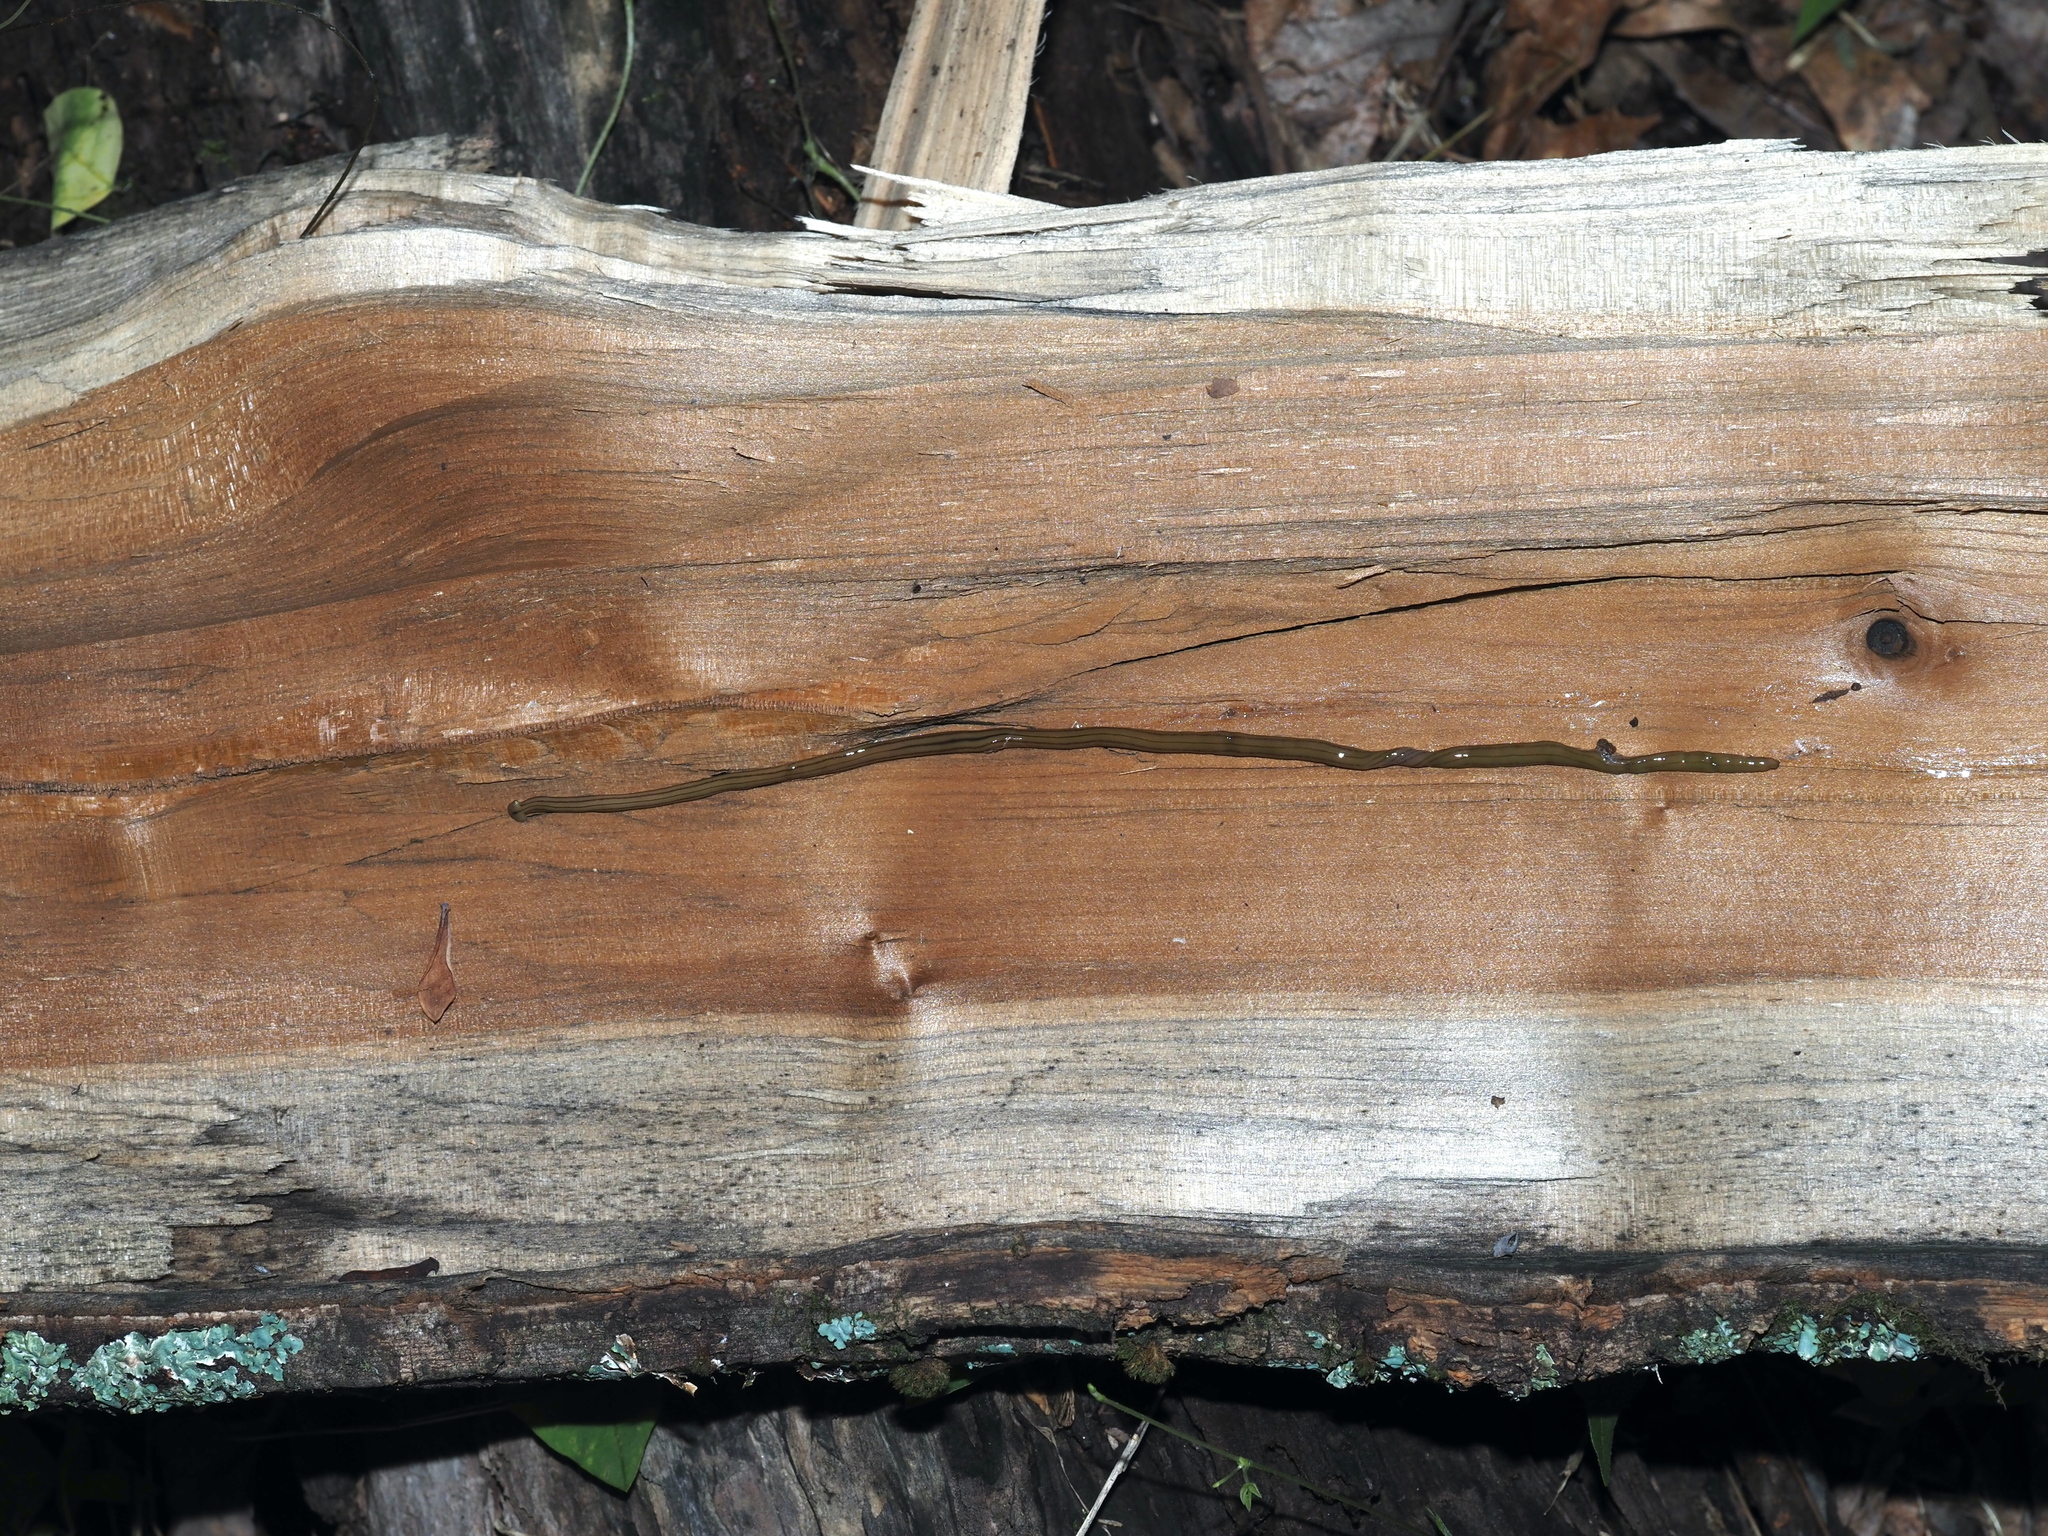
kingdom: Animalia
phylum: Platyhelminthes
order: Tricladida
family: Geoplanidae
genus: Diversibipalium
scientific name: Diversibipalium multilineatum
